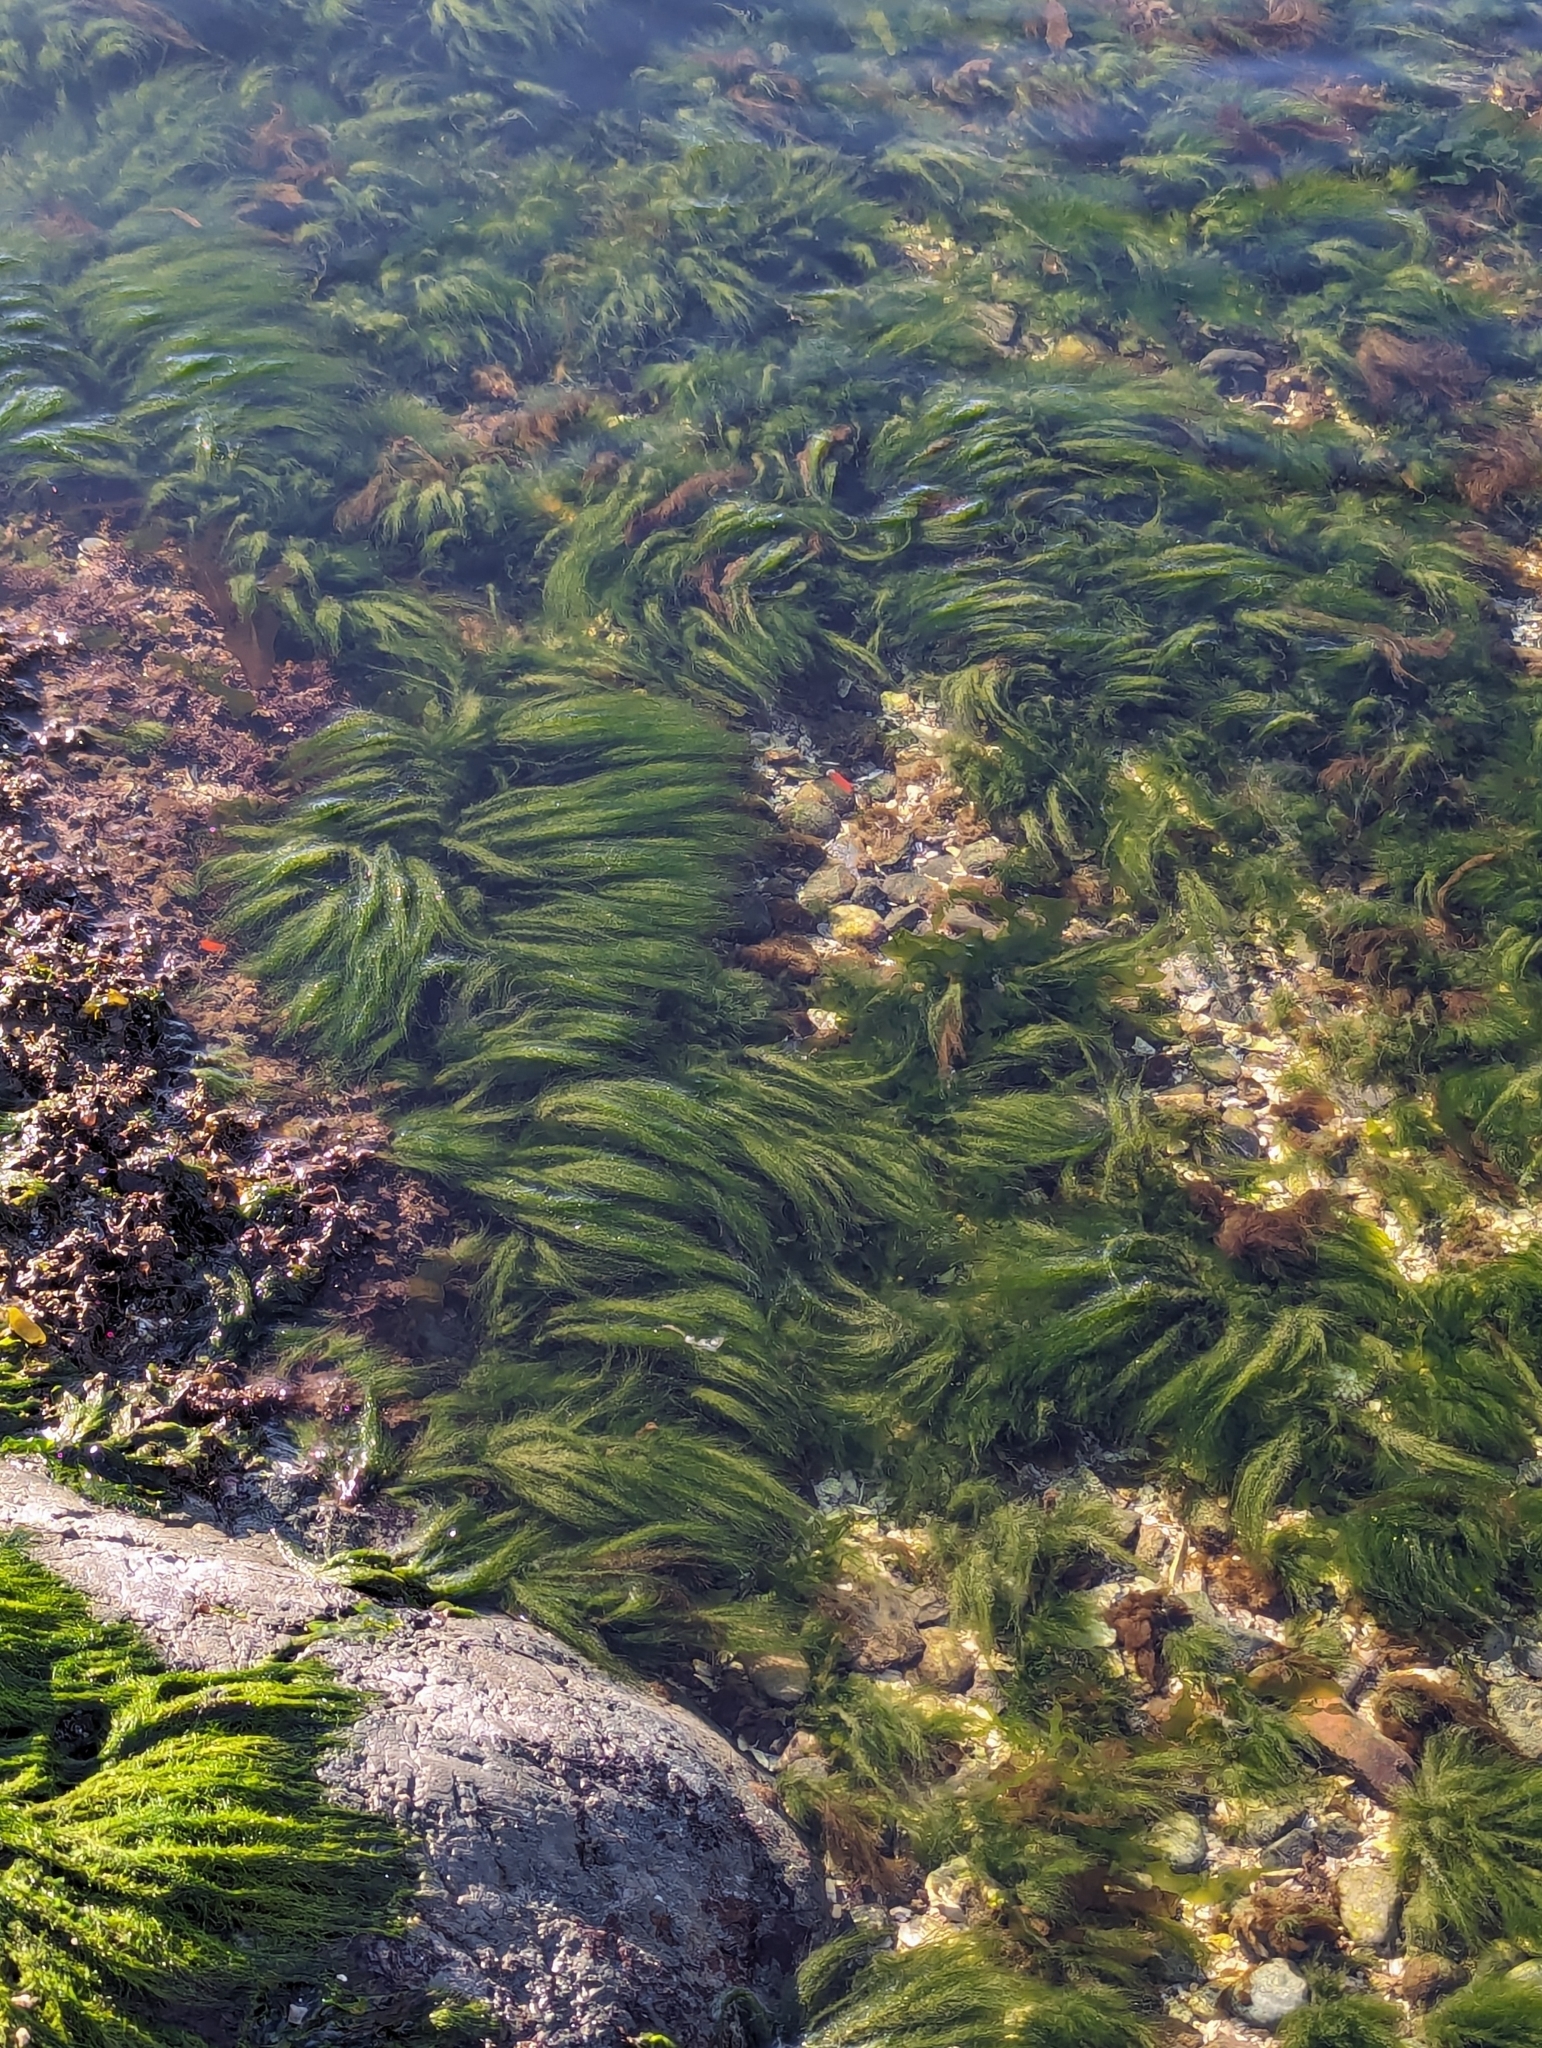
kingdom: Plantae
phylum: Chlorophyta
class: Ulvophyceae
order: Ulotrichales
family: Ulotrichaceae
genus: Acrosiphonia
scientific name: Acrosiphonia
